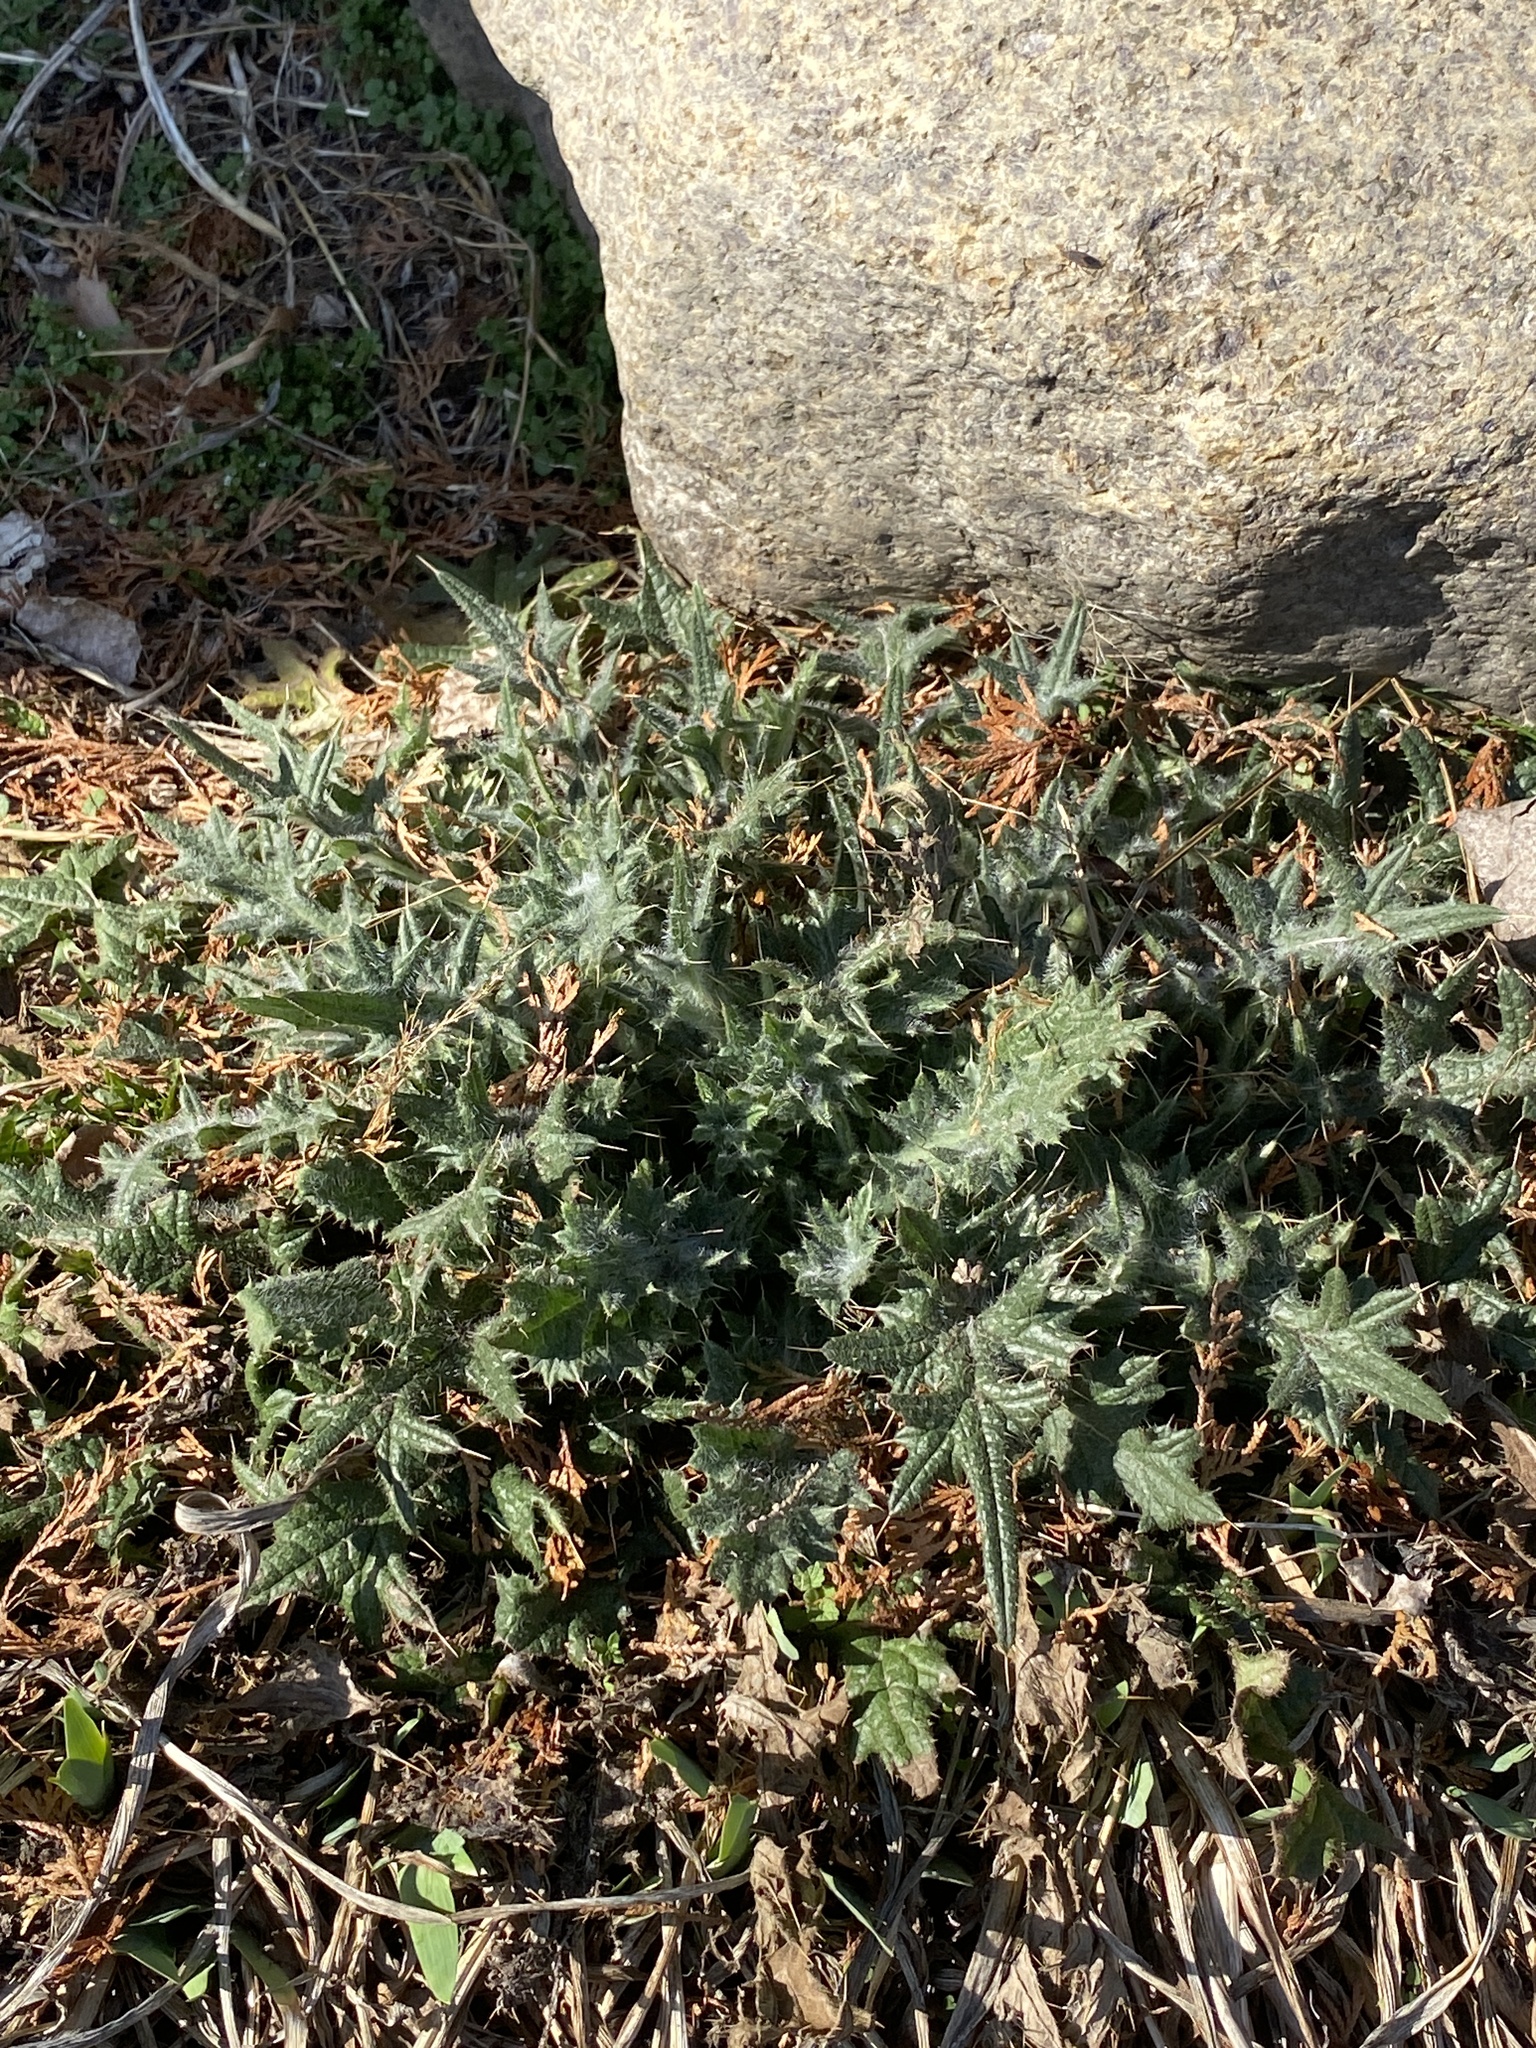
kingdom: Plantae
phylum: Tracheophyta
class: Magnoliopsida
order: Asterales
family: Asteraceae
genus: Cirsium
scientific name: Cirsium vulgare
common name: Bull thistle
